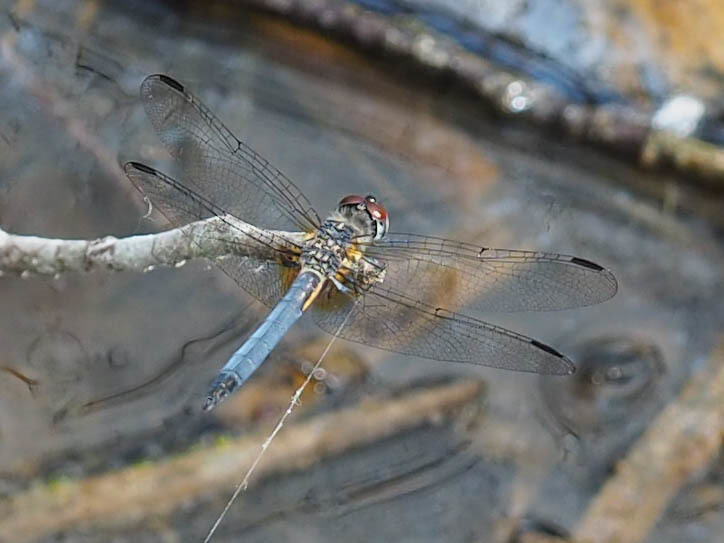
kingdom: Animalia
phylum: Arthropoda
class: Insecta
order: Odonata
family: Libellulidae
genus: Pachydiplax
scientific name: Pachydiplax longipennis
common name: Blue dasher
